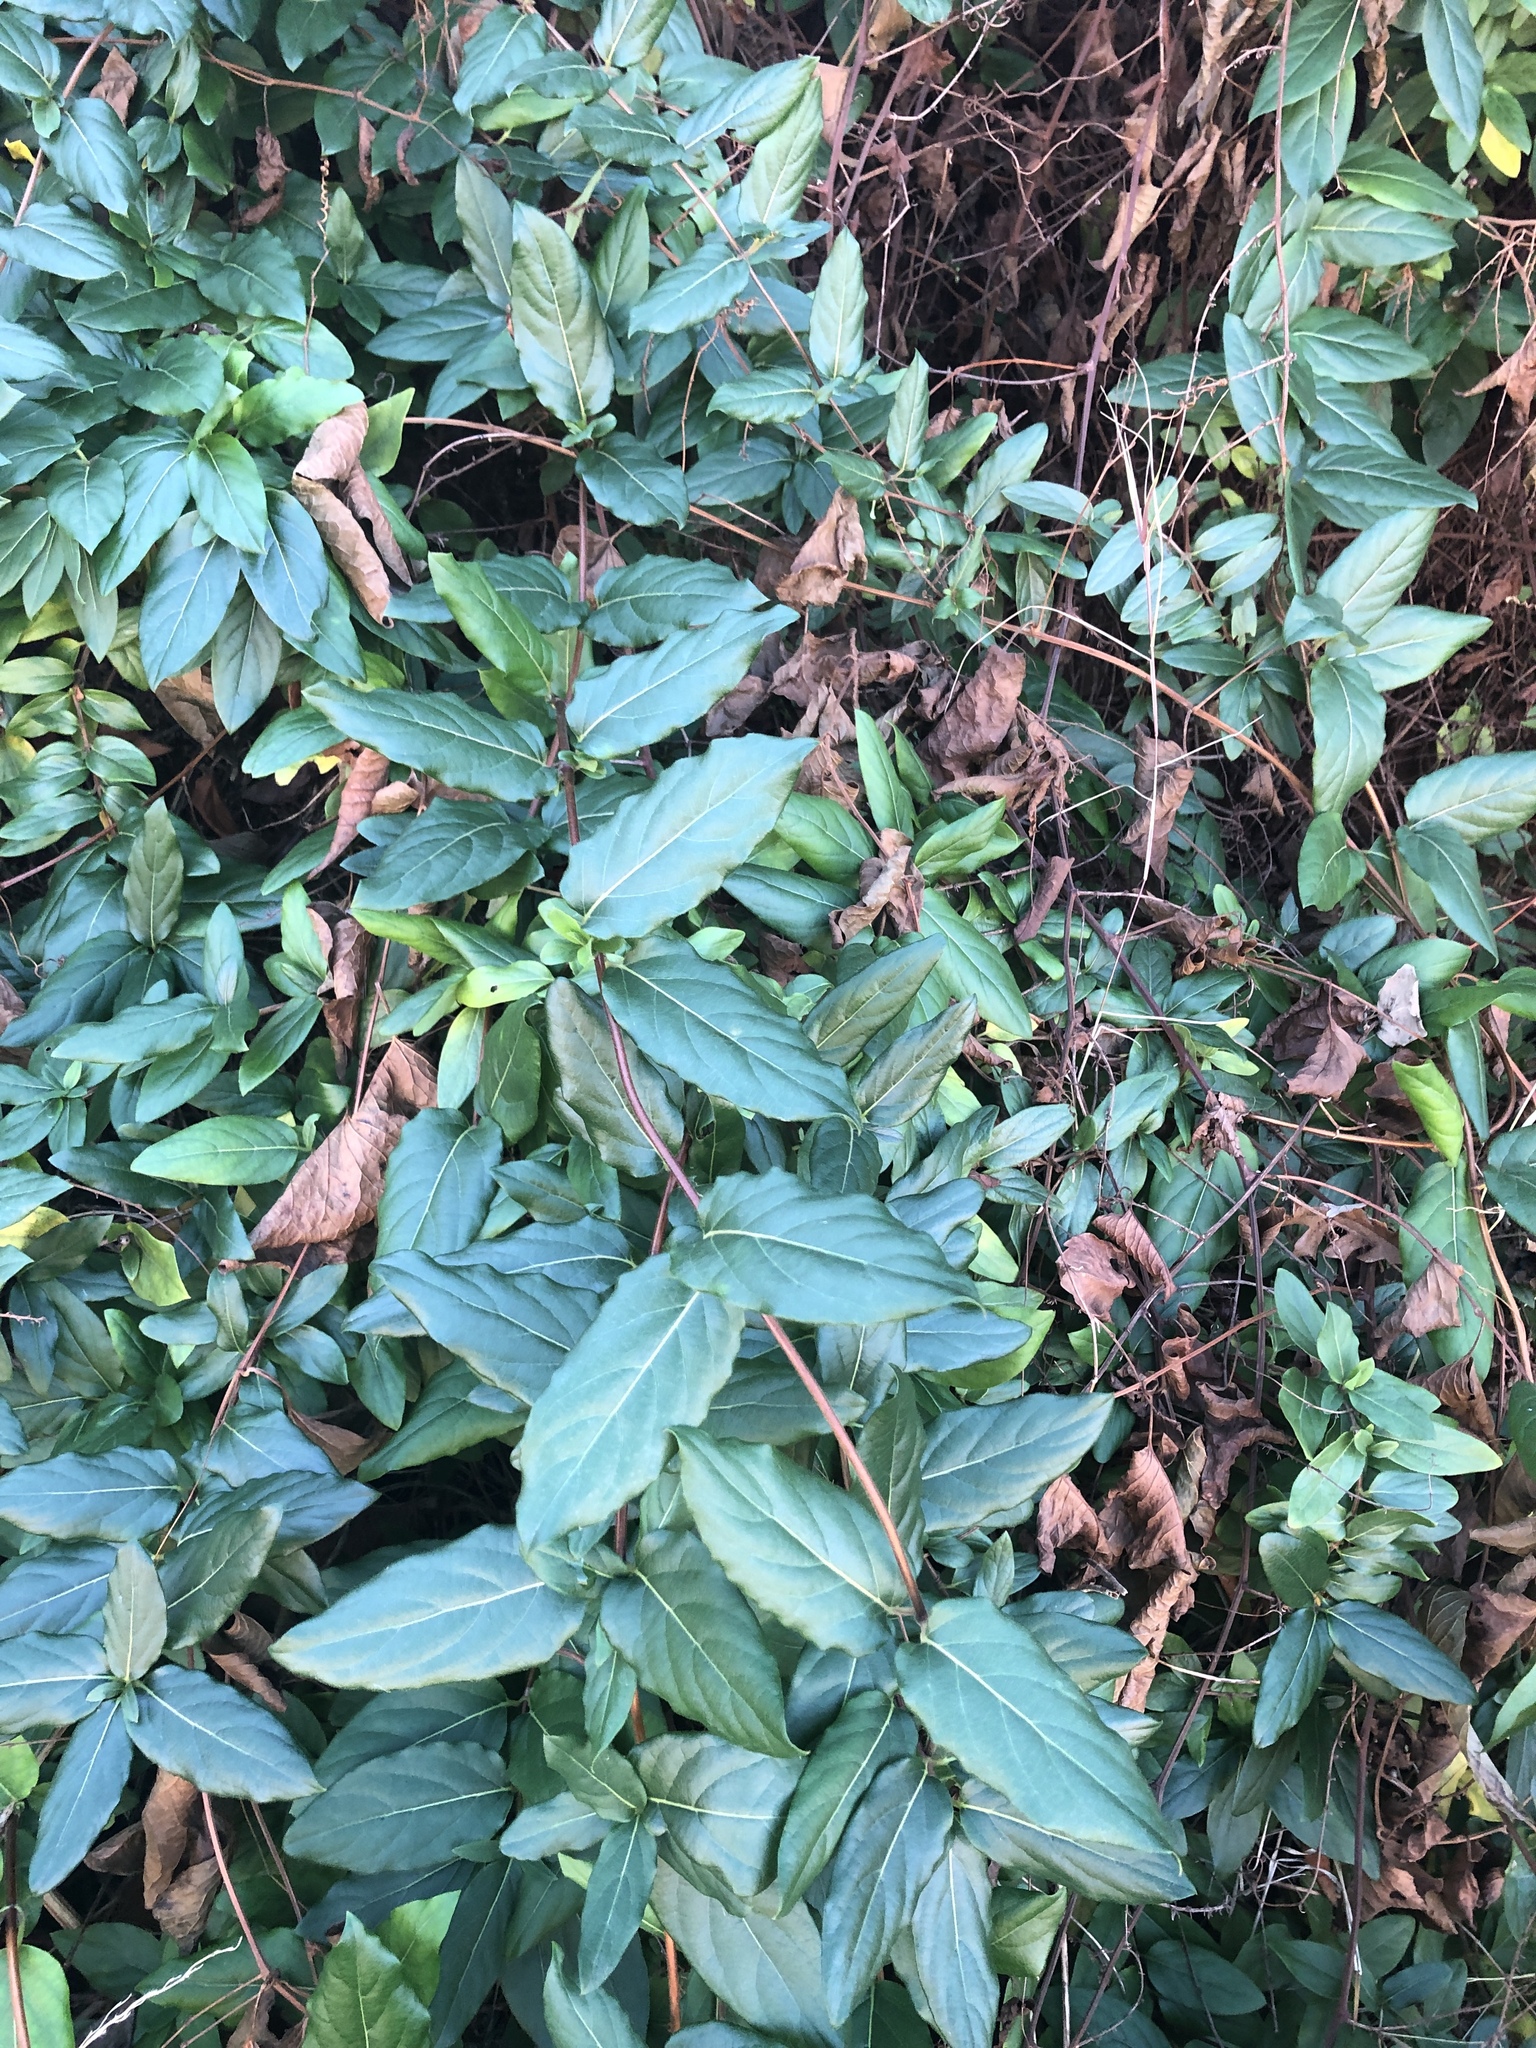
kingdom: Plantae
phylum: Tracheophyta
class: Magnoliopsida
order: Dipsacales
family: Caprifoliaceae
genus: Lonicera
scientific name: Lonicera japonica
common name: Japanese honeysuckle
